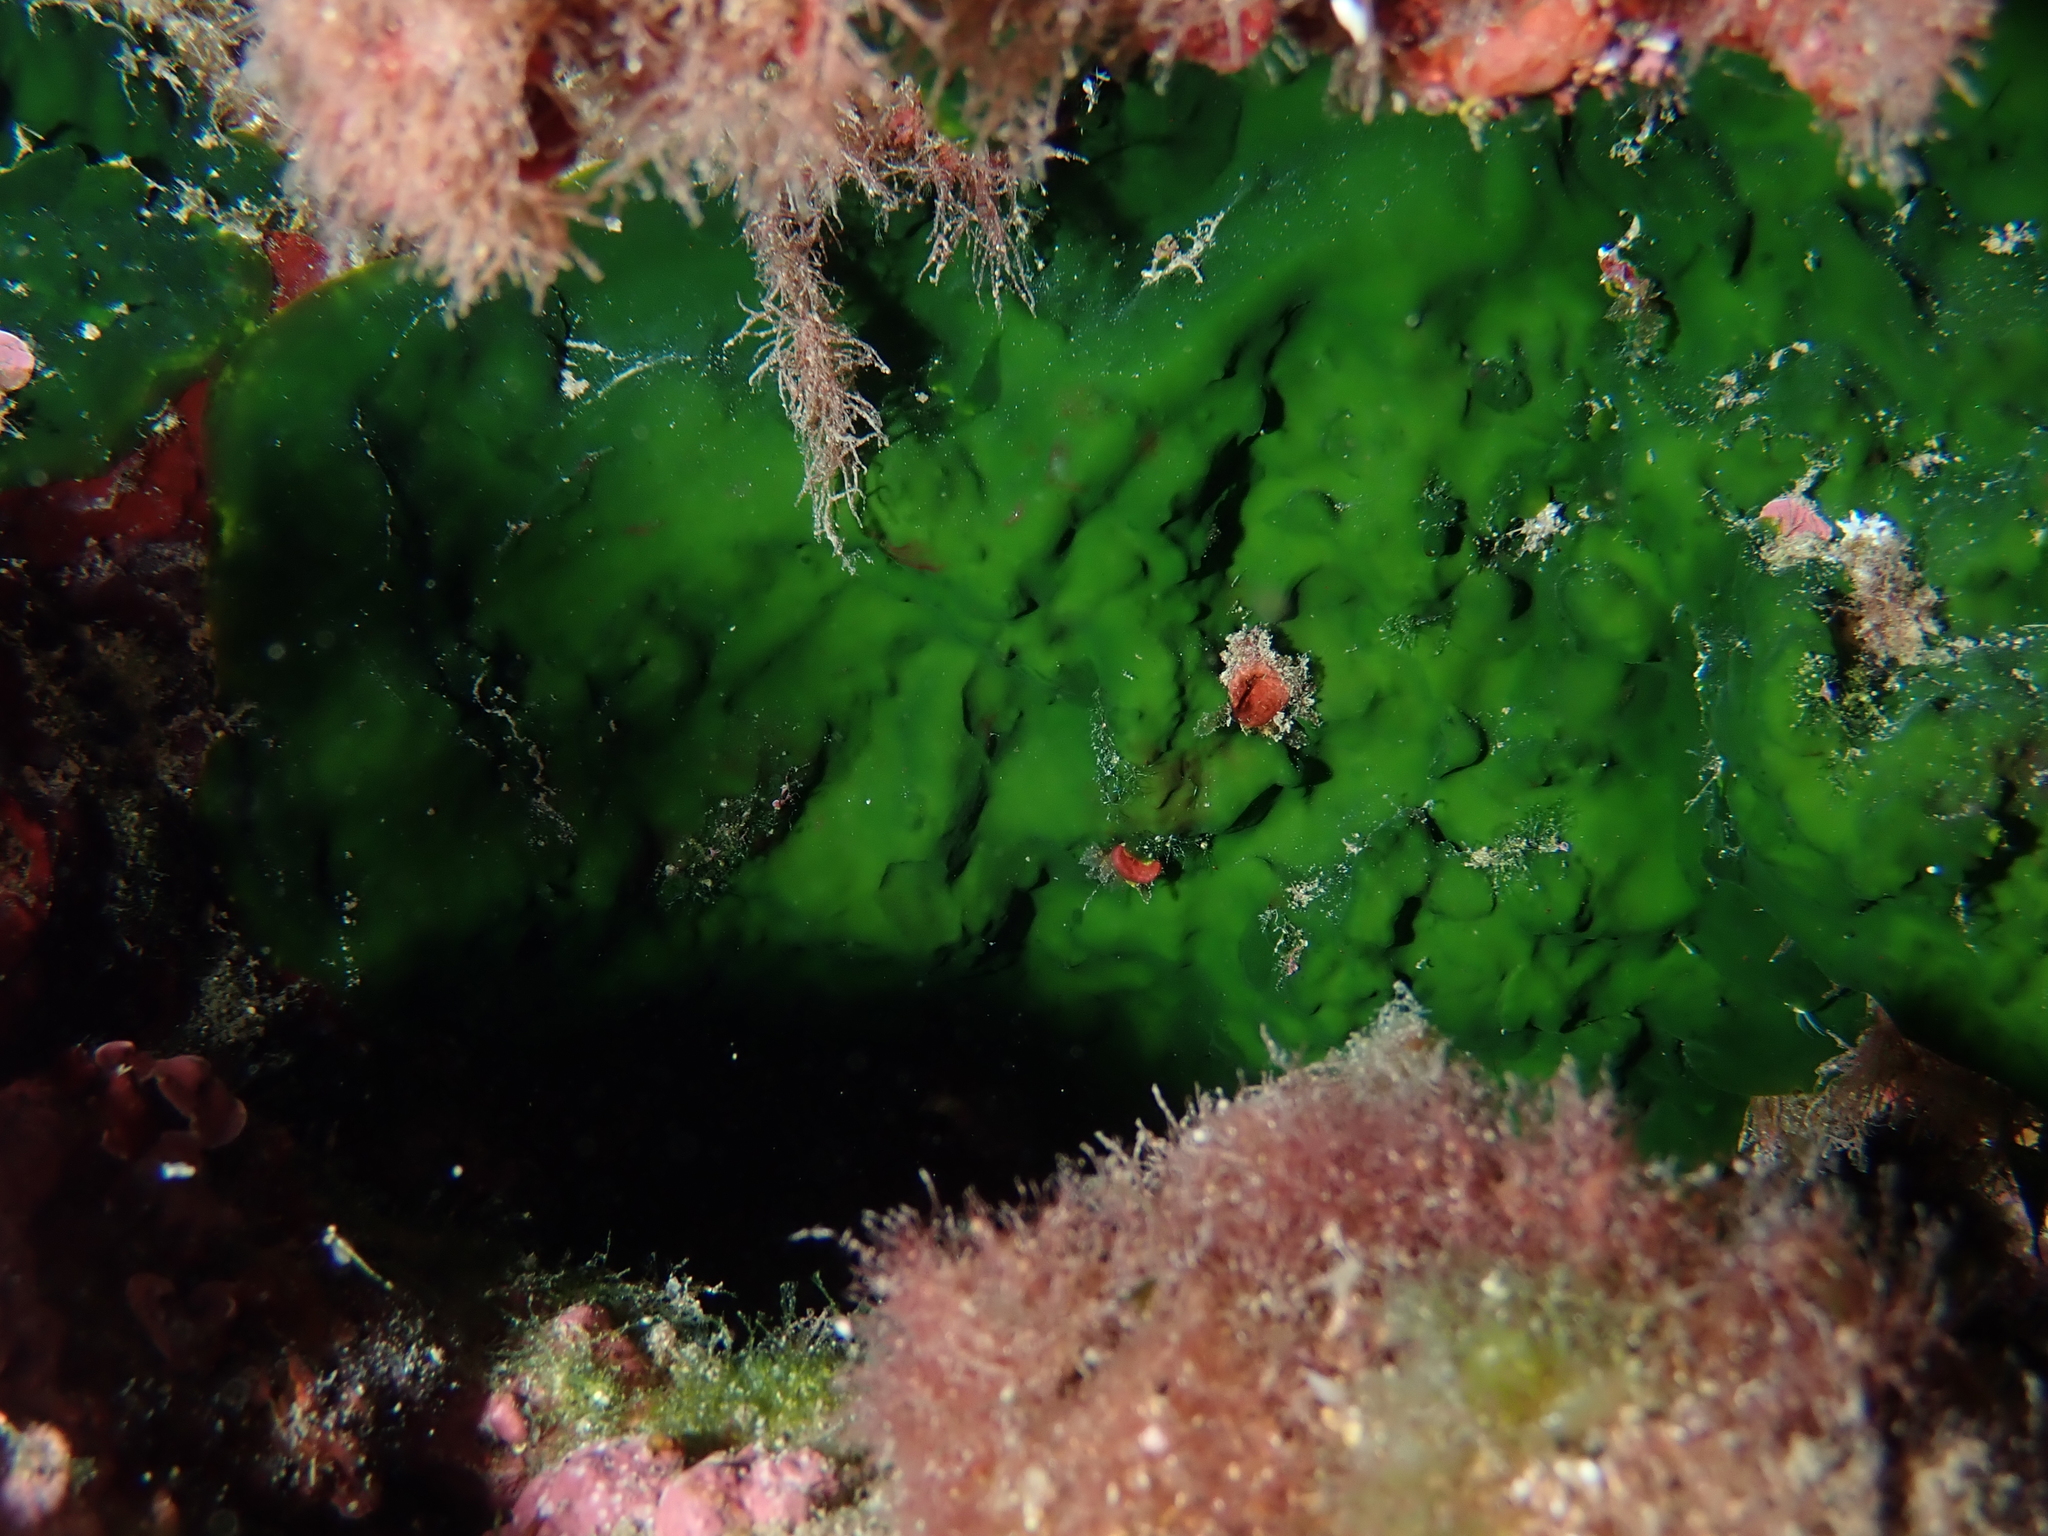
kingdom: Plantae
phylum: Chlorophyta
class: Palmophyllophyceae
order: Palmophyllales
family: Palmophyllaceae
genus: Palmophyllum
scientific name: Palmophyllum crassum
